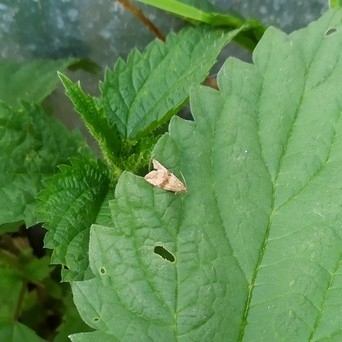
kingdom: Animalia
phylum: Arthropoda
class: Insecta
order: Lepidoptera
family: Tortricidae
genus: Celypha
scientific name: Celypha striana
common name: Barred marble
